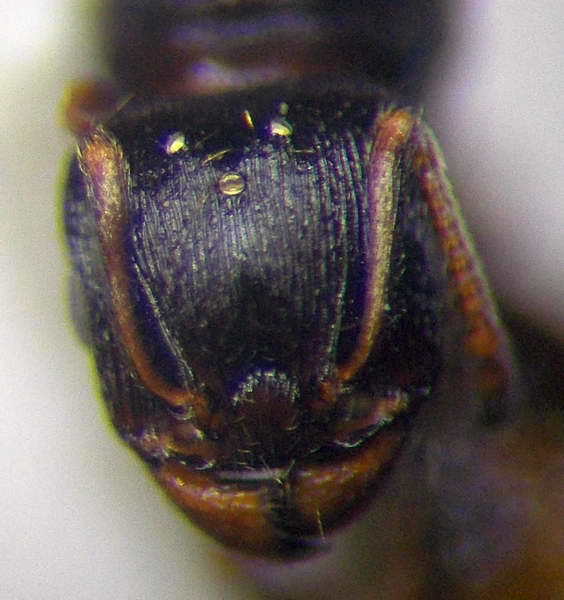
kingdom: Animalia
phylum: Arthropoda
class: Insecta
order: Hymenoptera
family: Formicidae
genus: Tetramorium
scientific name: Tetramorium chefketi
